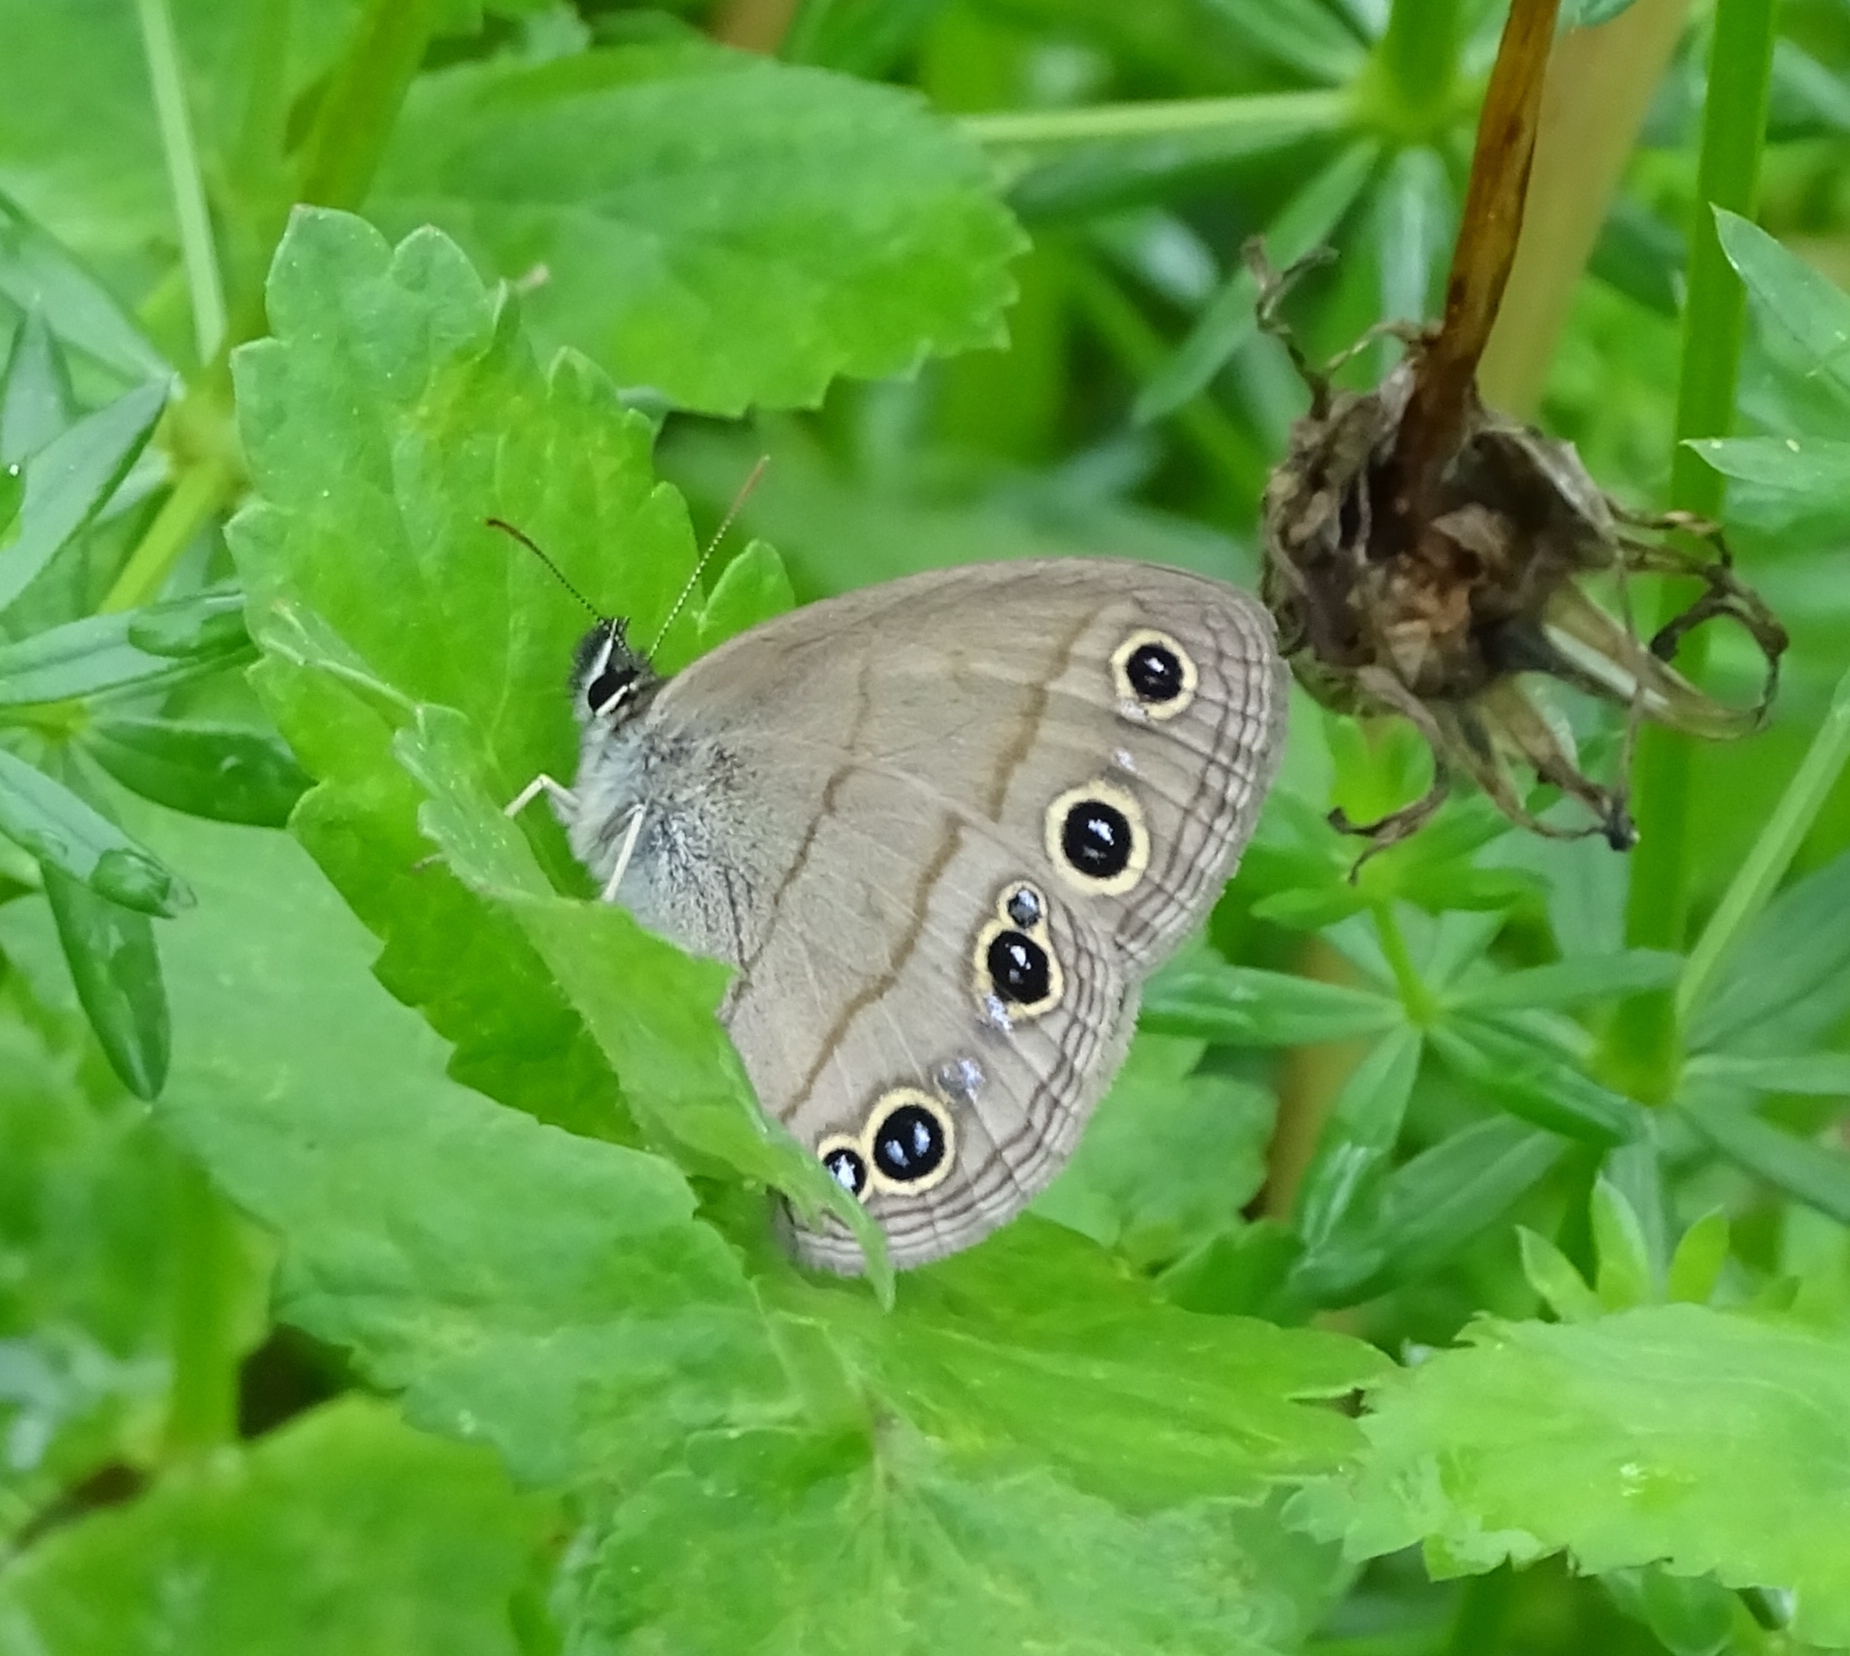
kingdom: Animalia
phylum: Arthropoda
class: Insecta
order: Lepidoptera
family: Nymphalidae
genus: Euptychia
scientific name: Euptychia cymela
